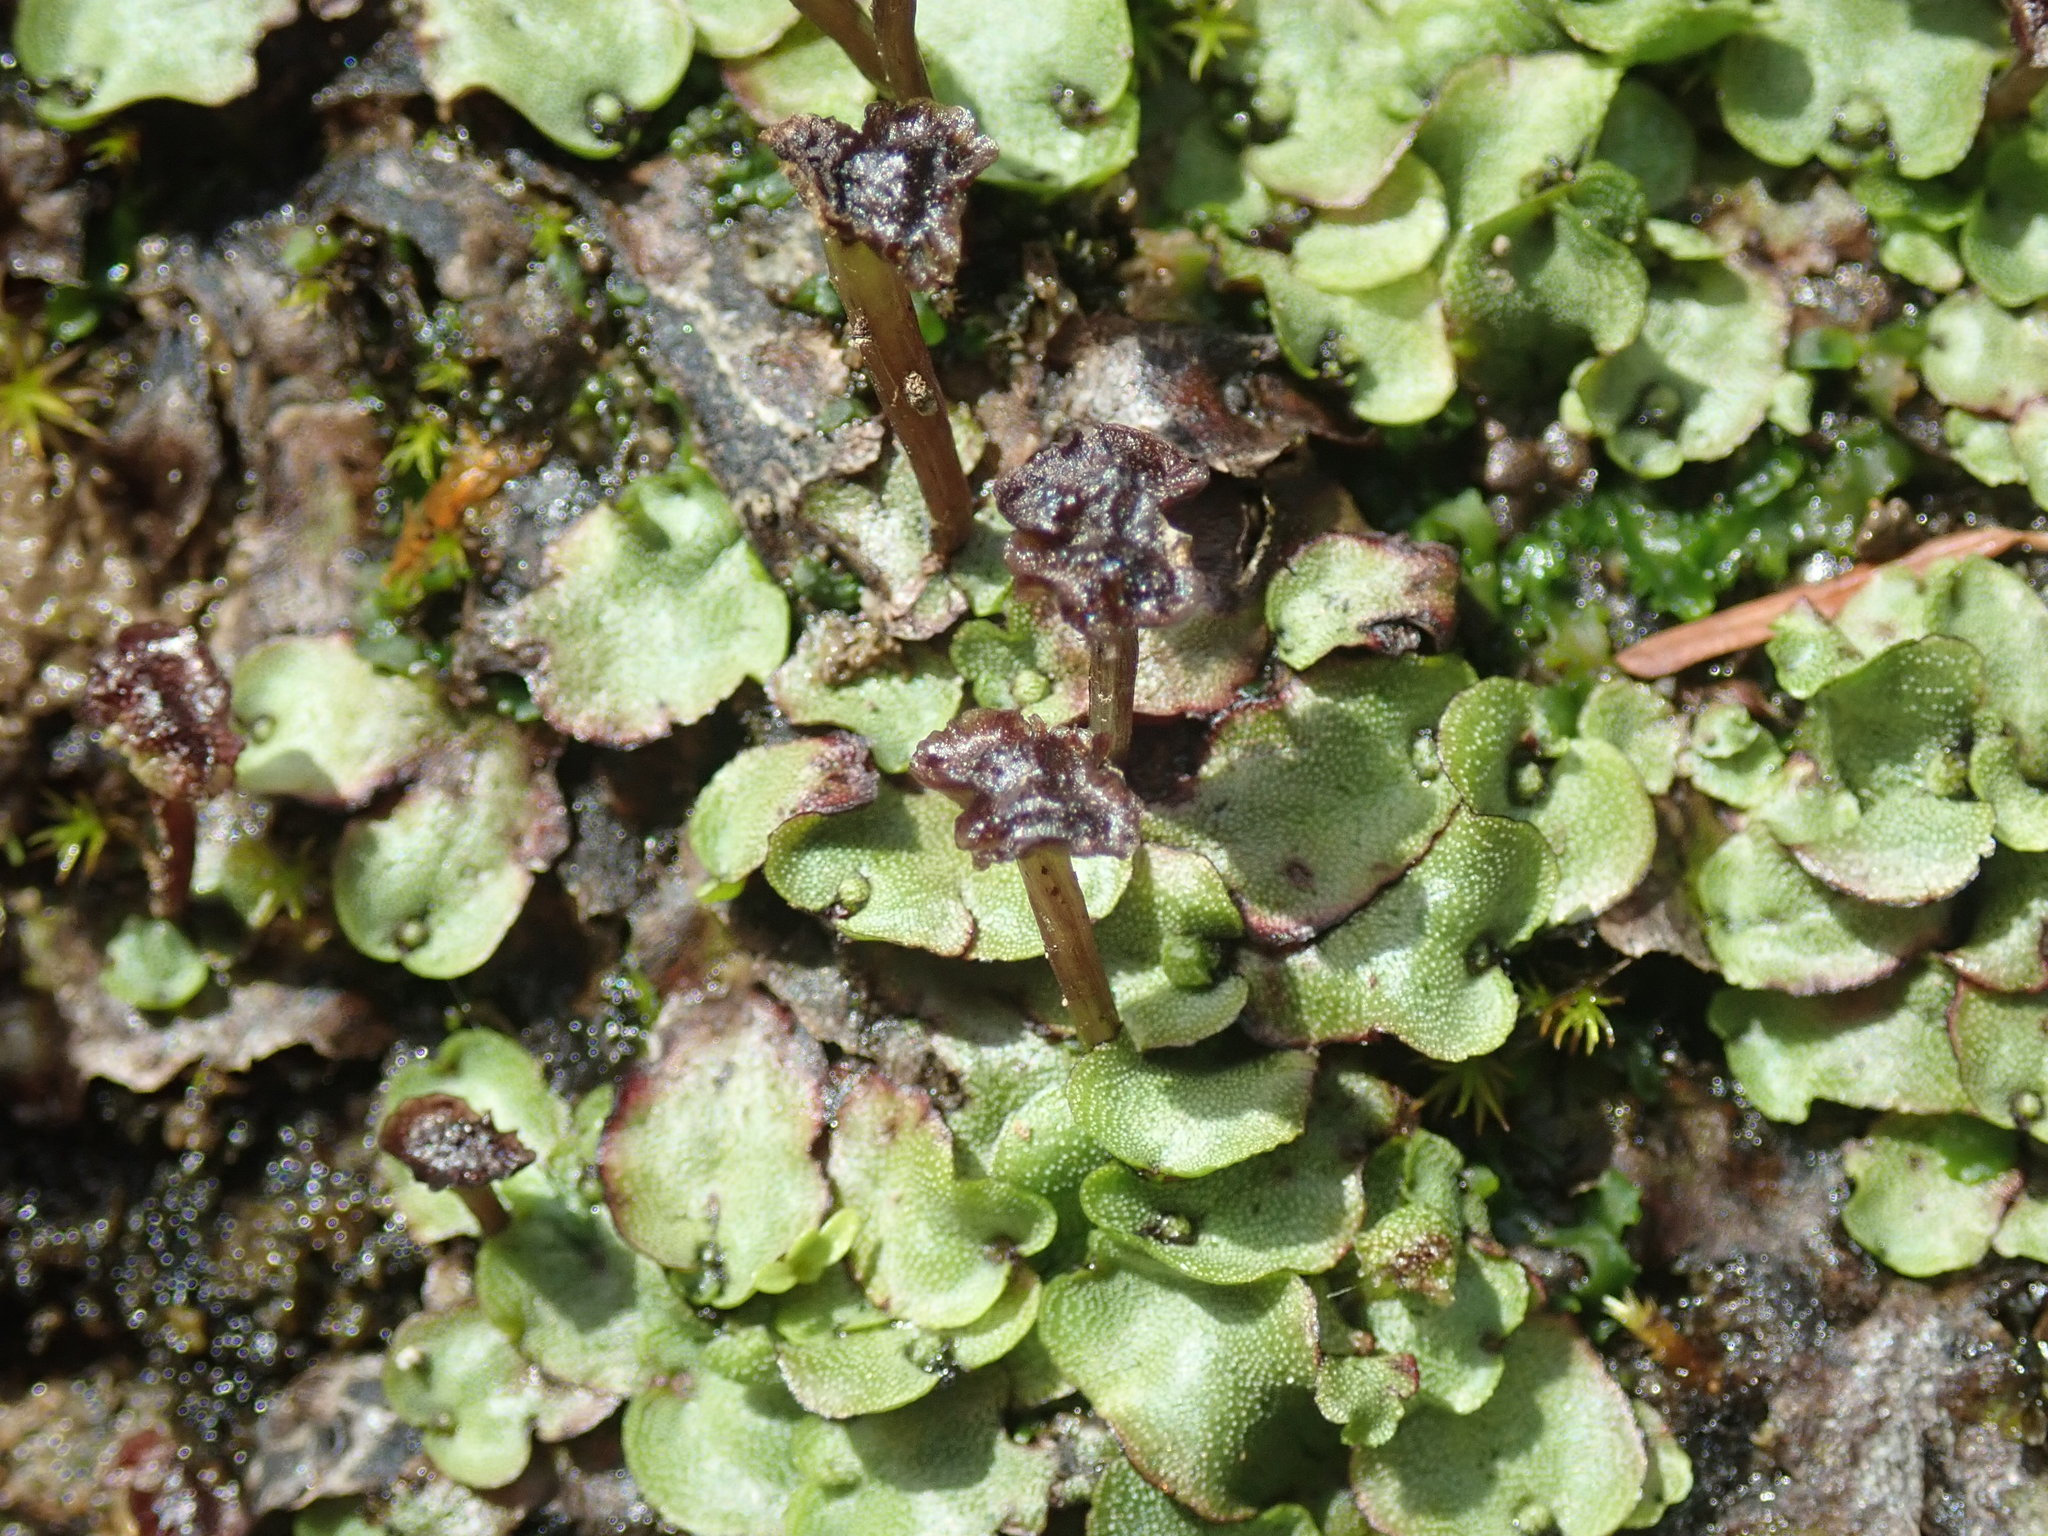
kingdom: Plantae
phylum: Marchantiophyta
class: Marchantiopsida
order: Marchantiales
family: Marchantiaceae
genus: Marchantia
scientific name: Marchantia quadrata
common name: Narrow mushroom-headed liverwort
